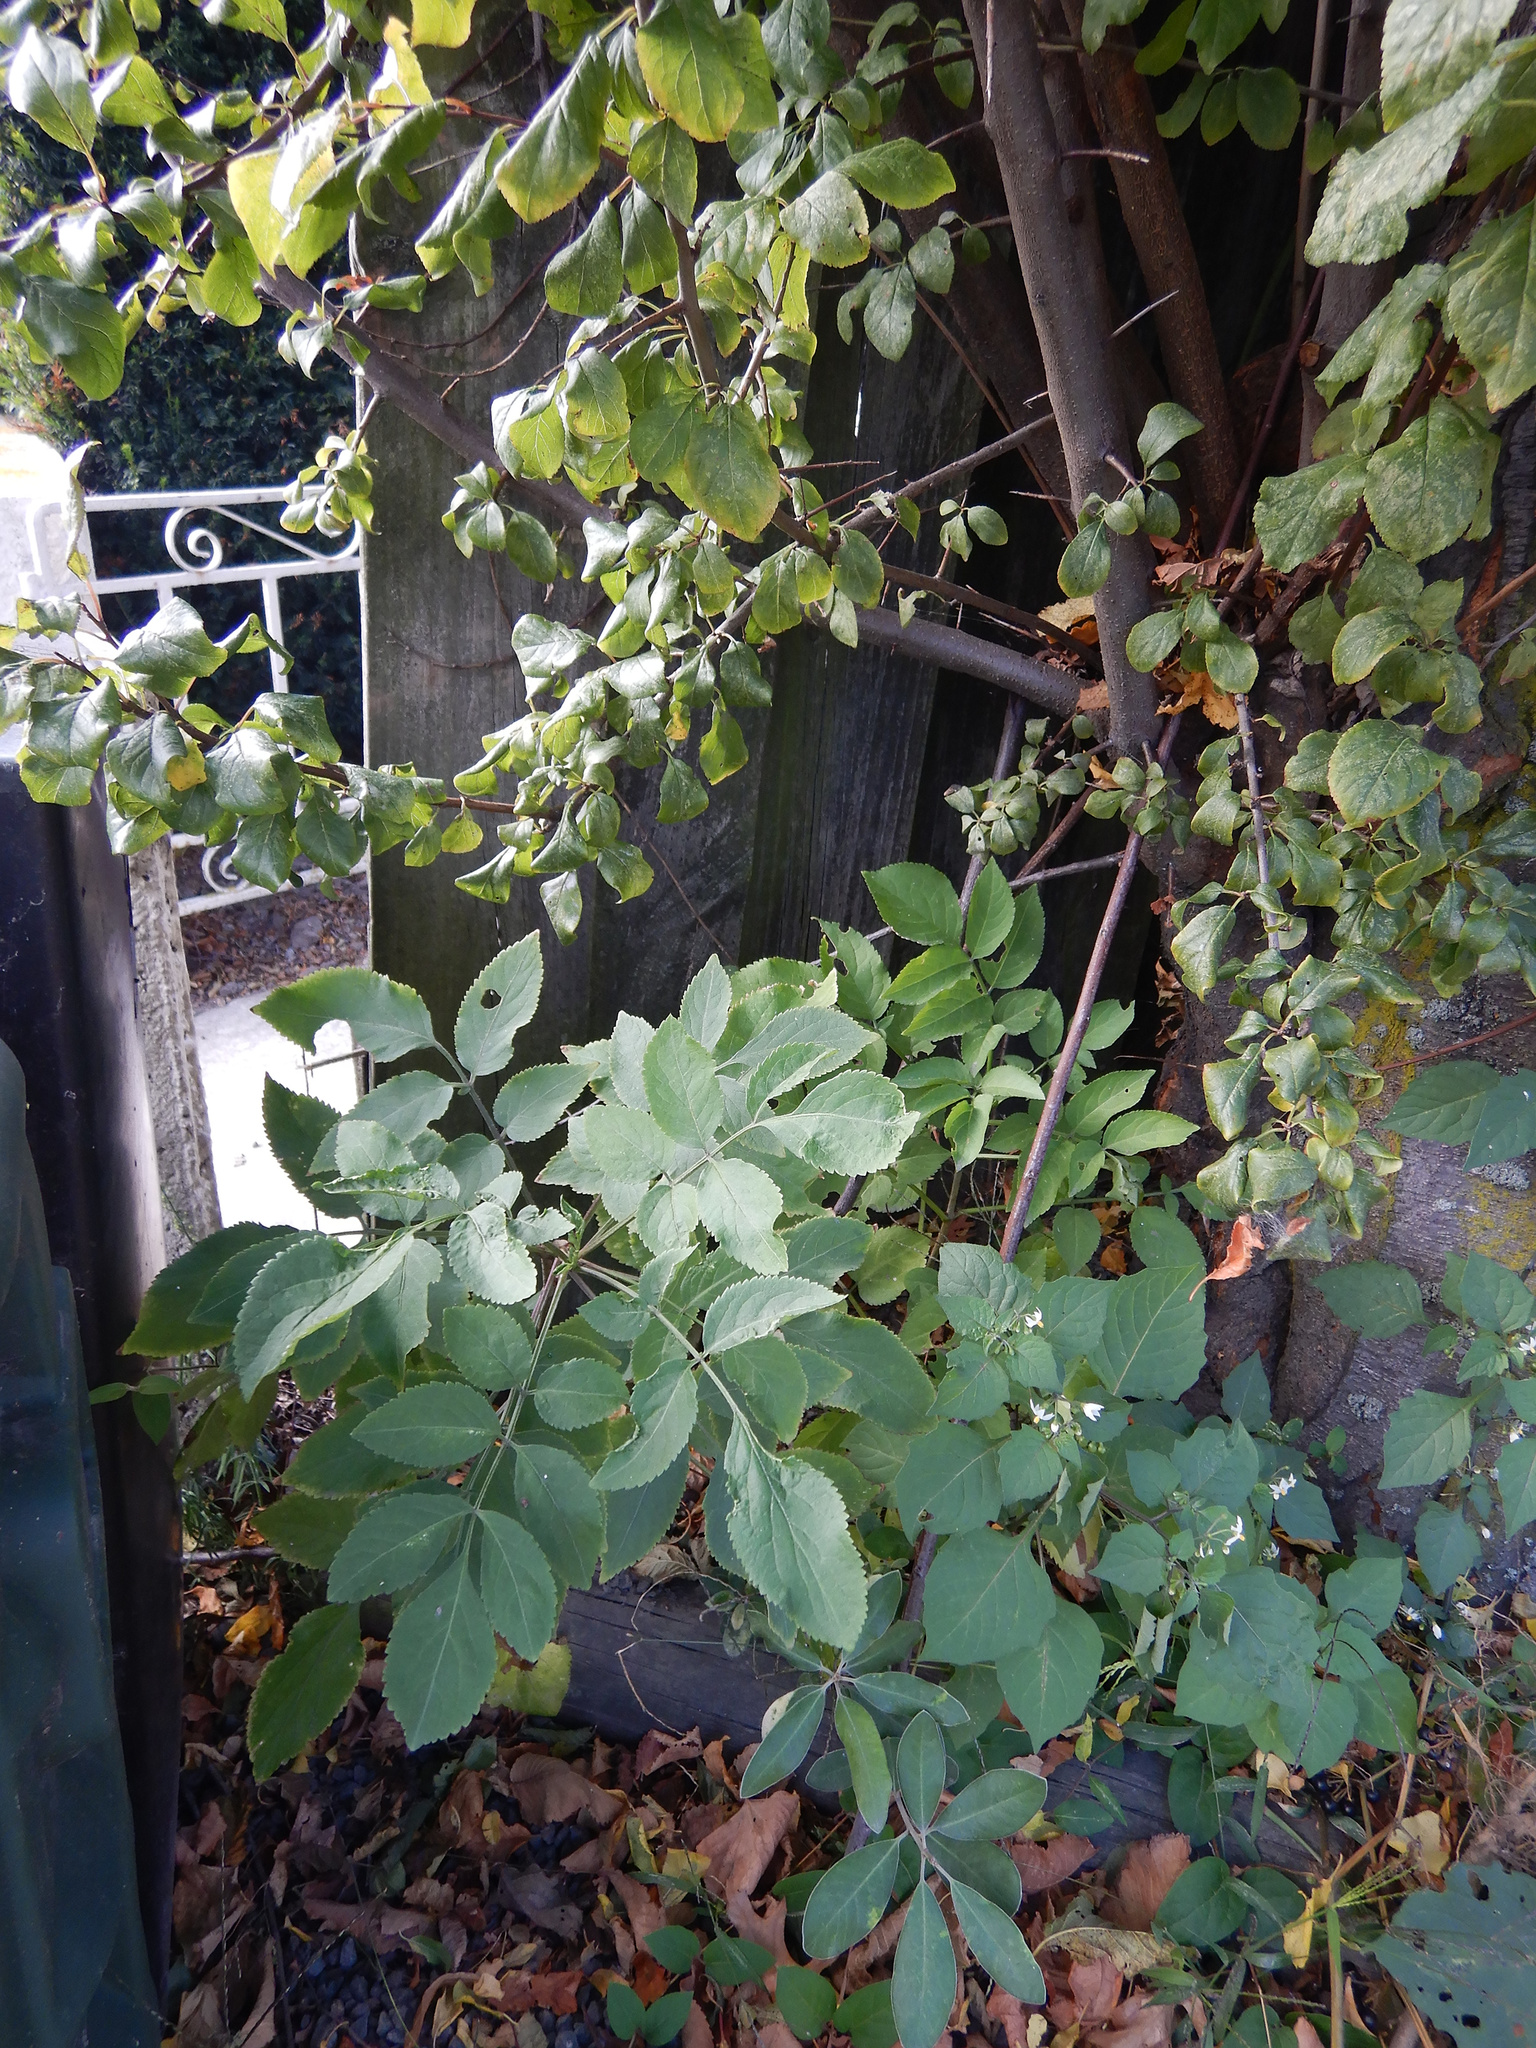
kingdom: Plantae
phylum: Tracheophyta
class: Magnoliopsida
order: Dipsacales
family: Viburnaceae
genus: Sambucus
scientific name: Sambucus nigra
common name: Elder
